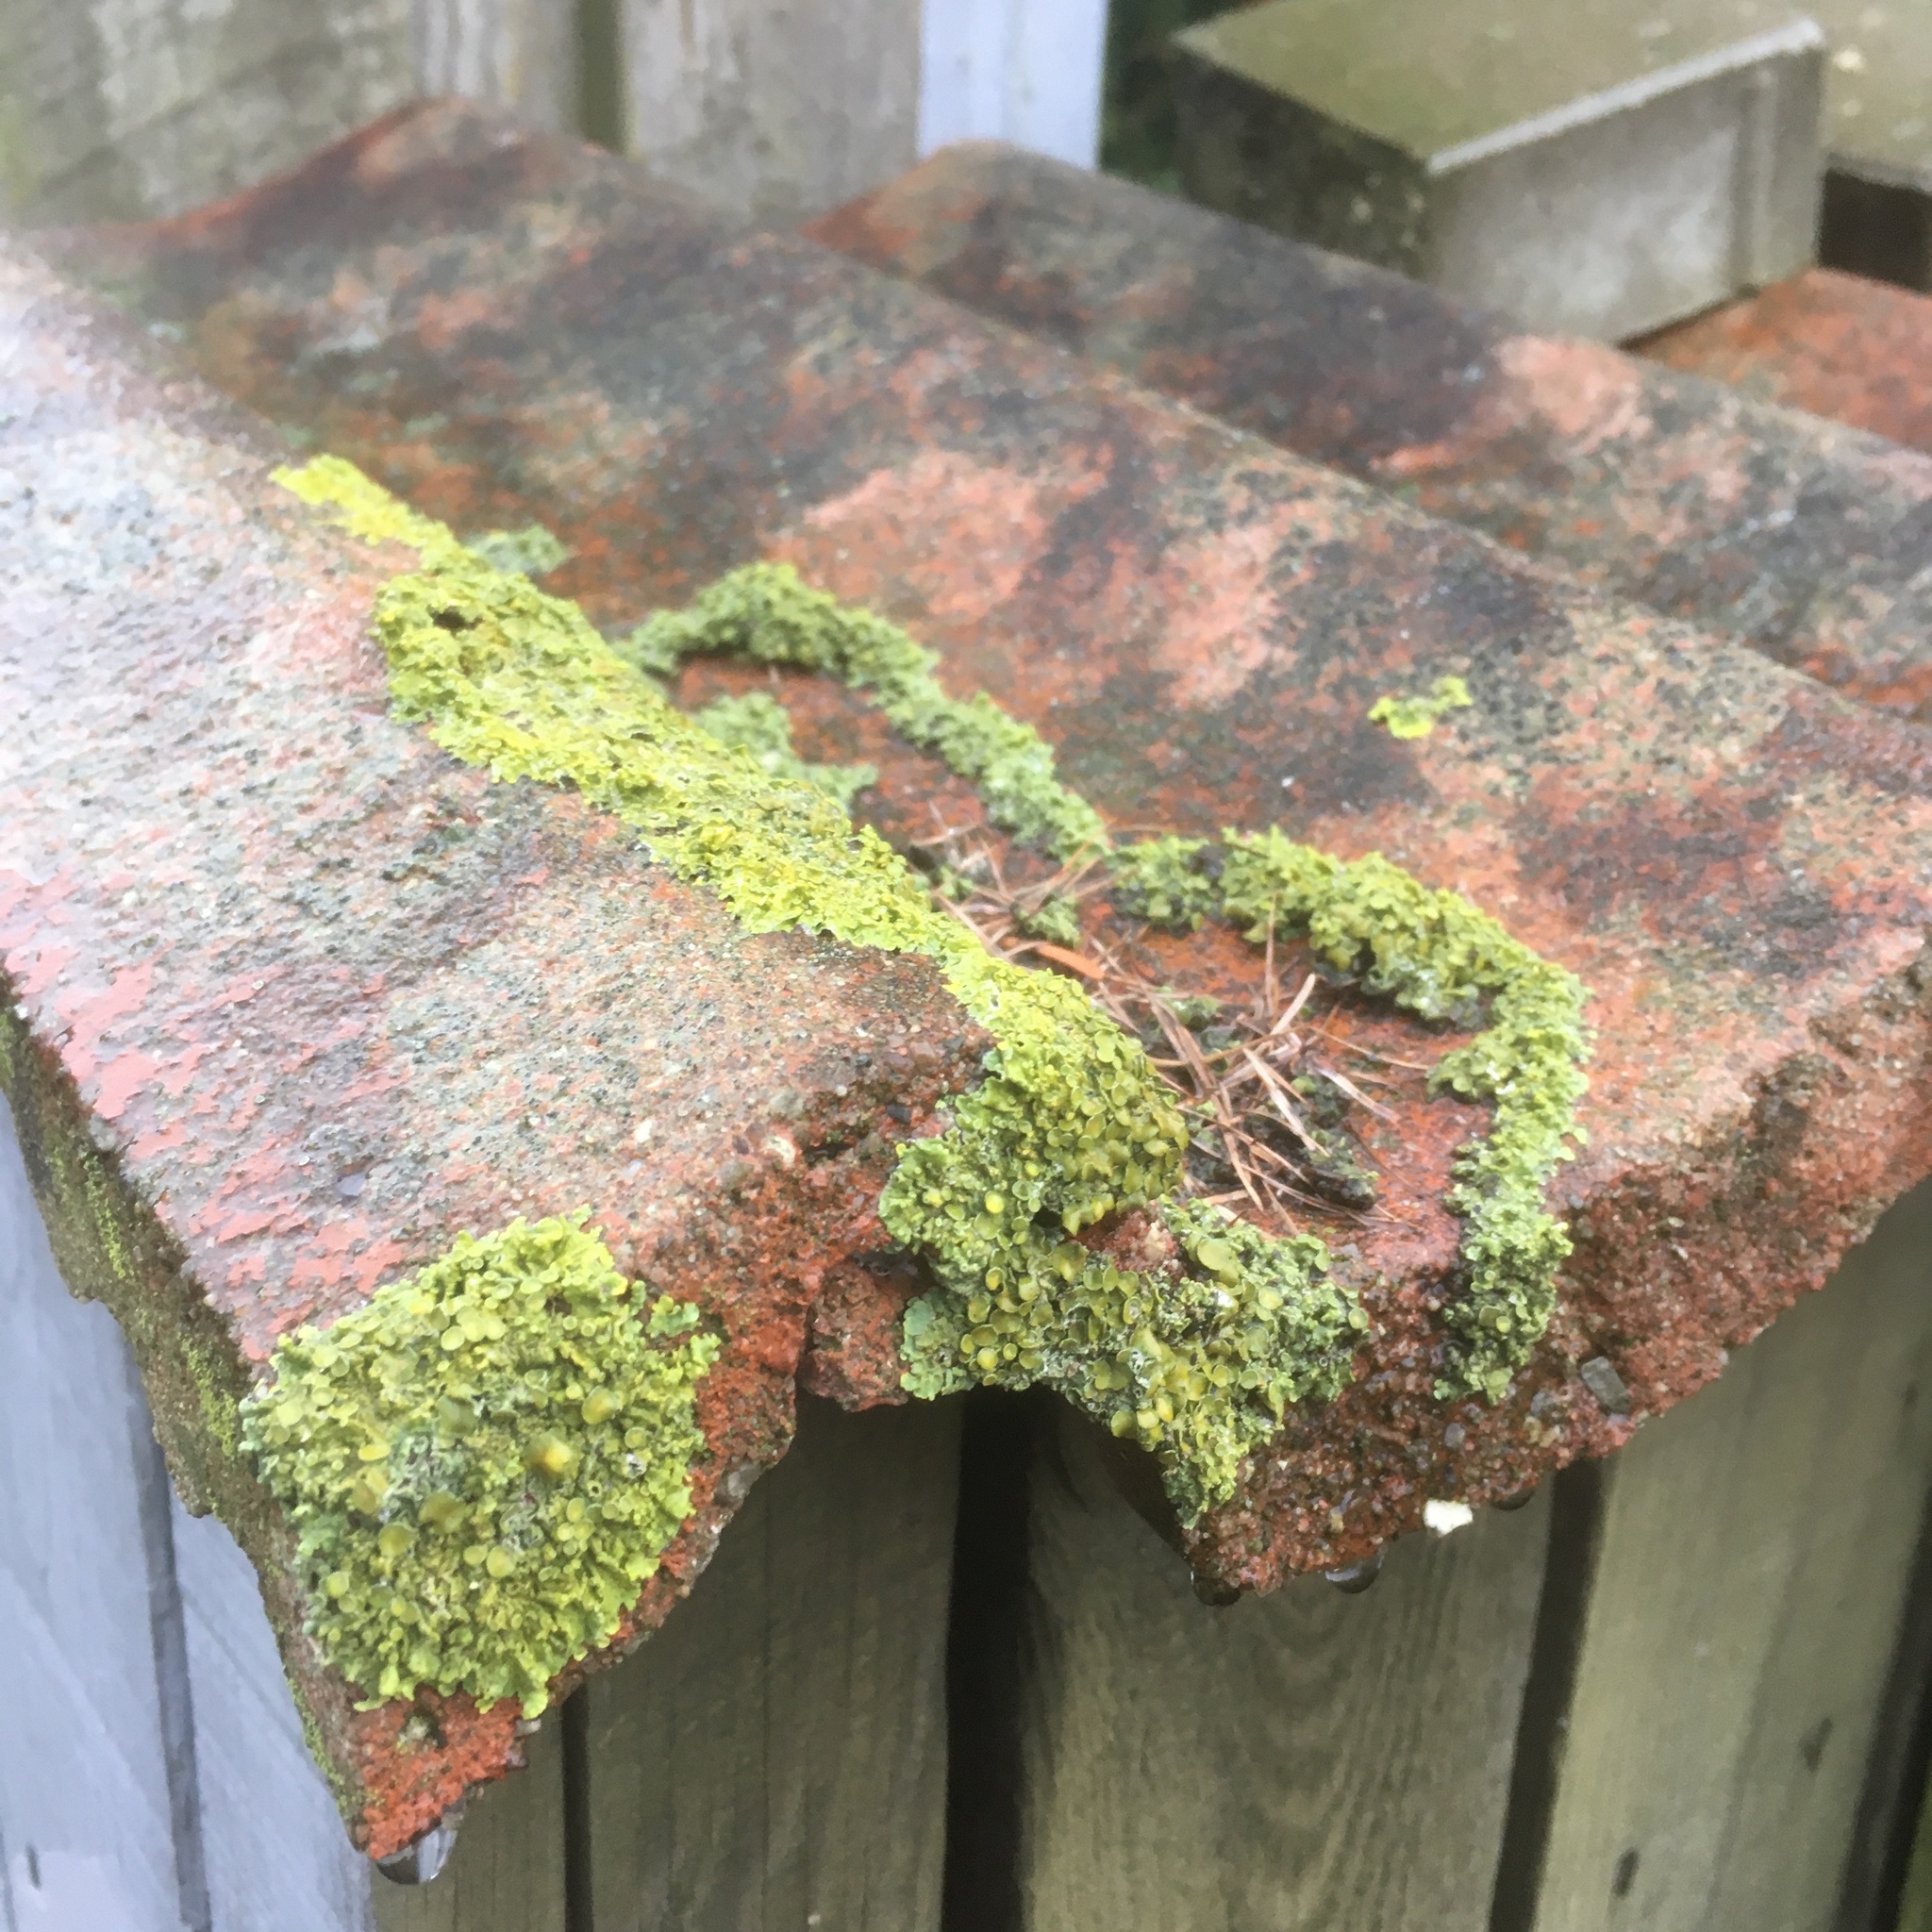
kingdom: Fungi
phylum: Ascomycota
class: Lecanoromycetes
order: Teloschistales
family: Teloschistaceae
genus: Xanthoria
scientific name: Xanthoria parietina
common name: Common orange lichen
